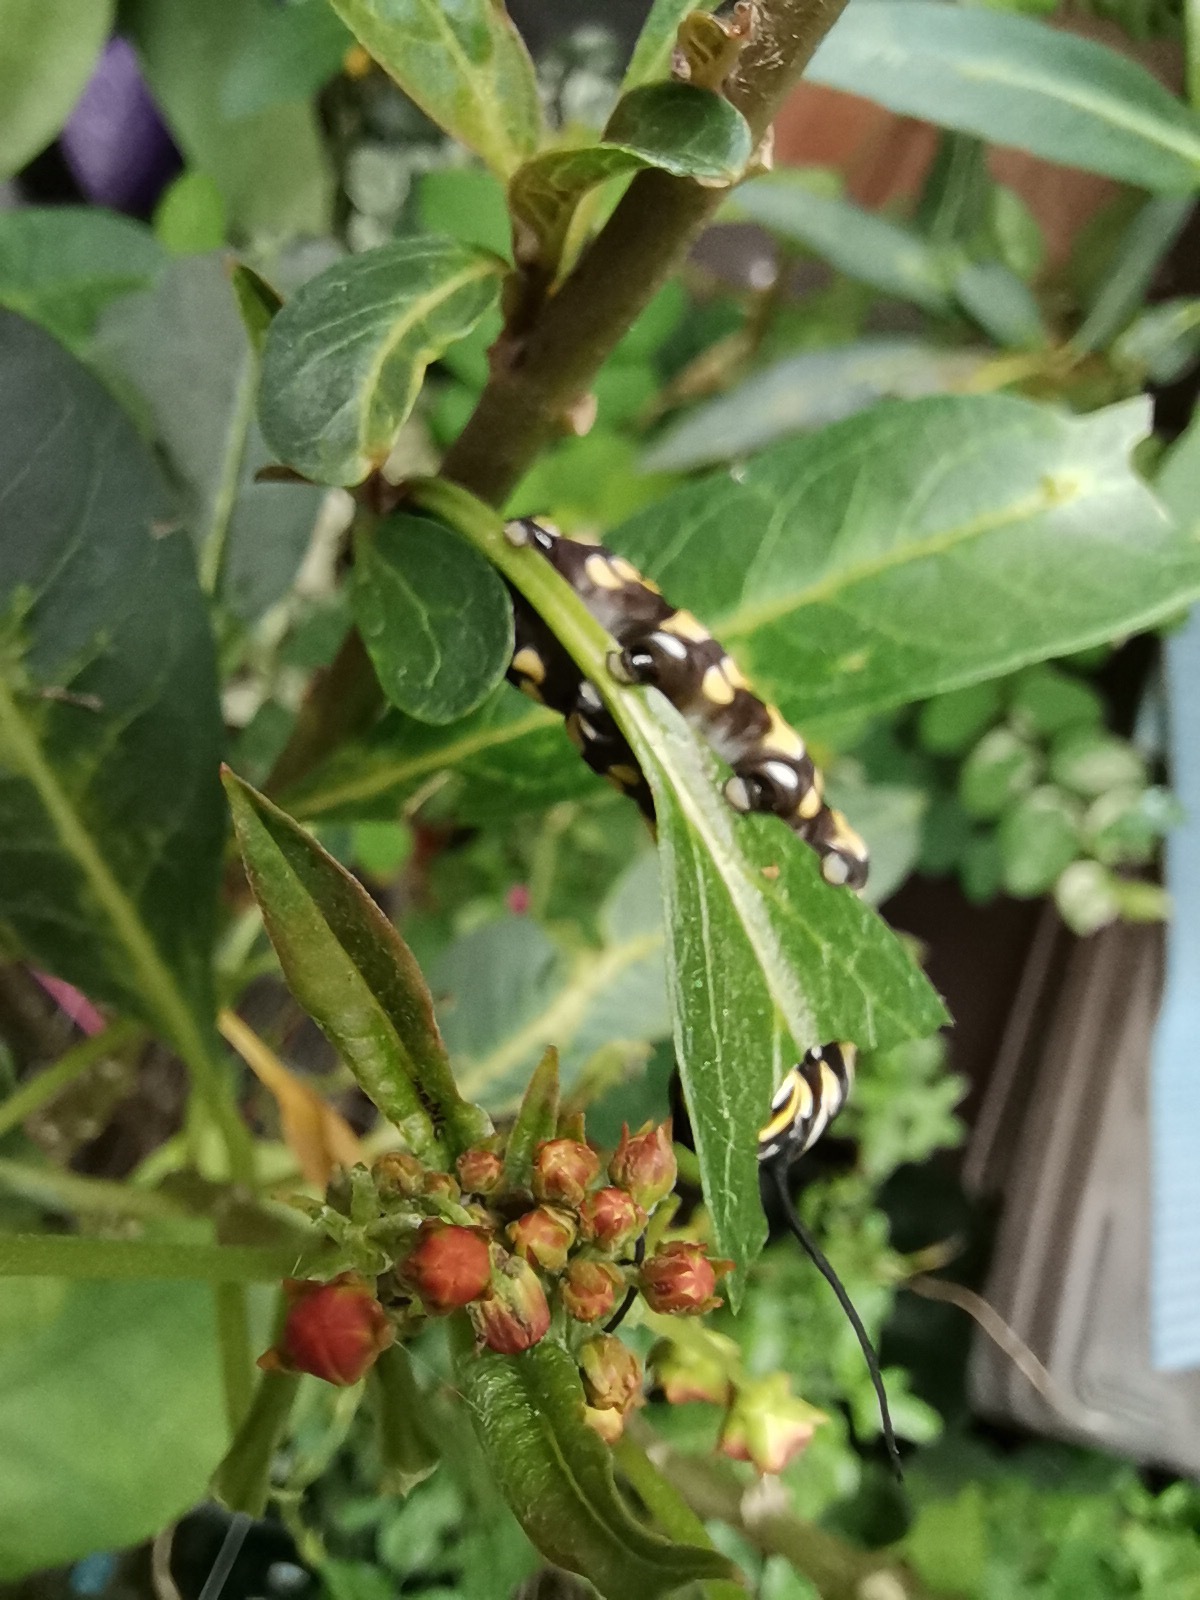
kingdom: Animalia
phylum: Arthropoda
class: Insecta
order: Lepidoptera
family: Nymphalidae
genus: Danaus
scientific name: Danaus plexippus
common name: Monarch
